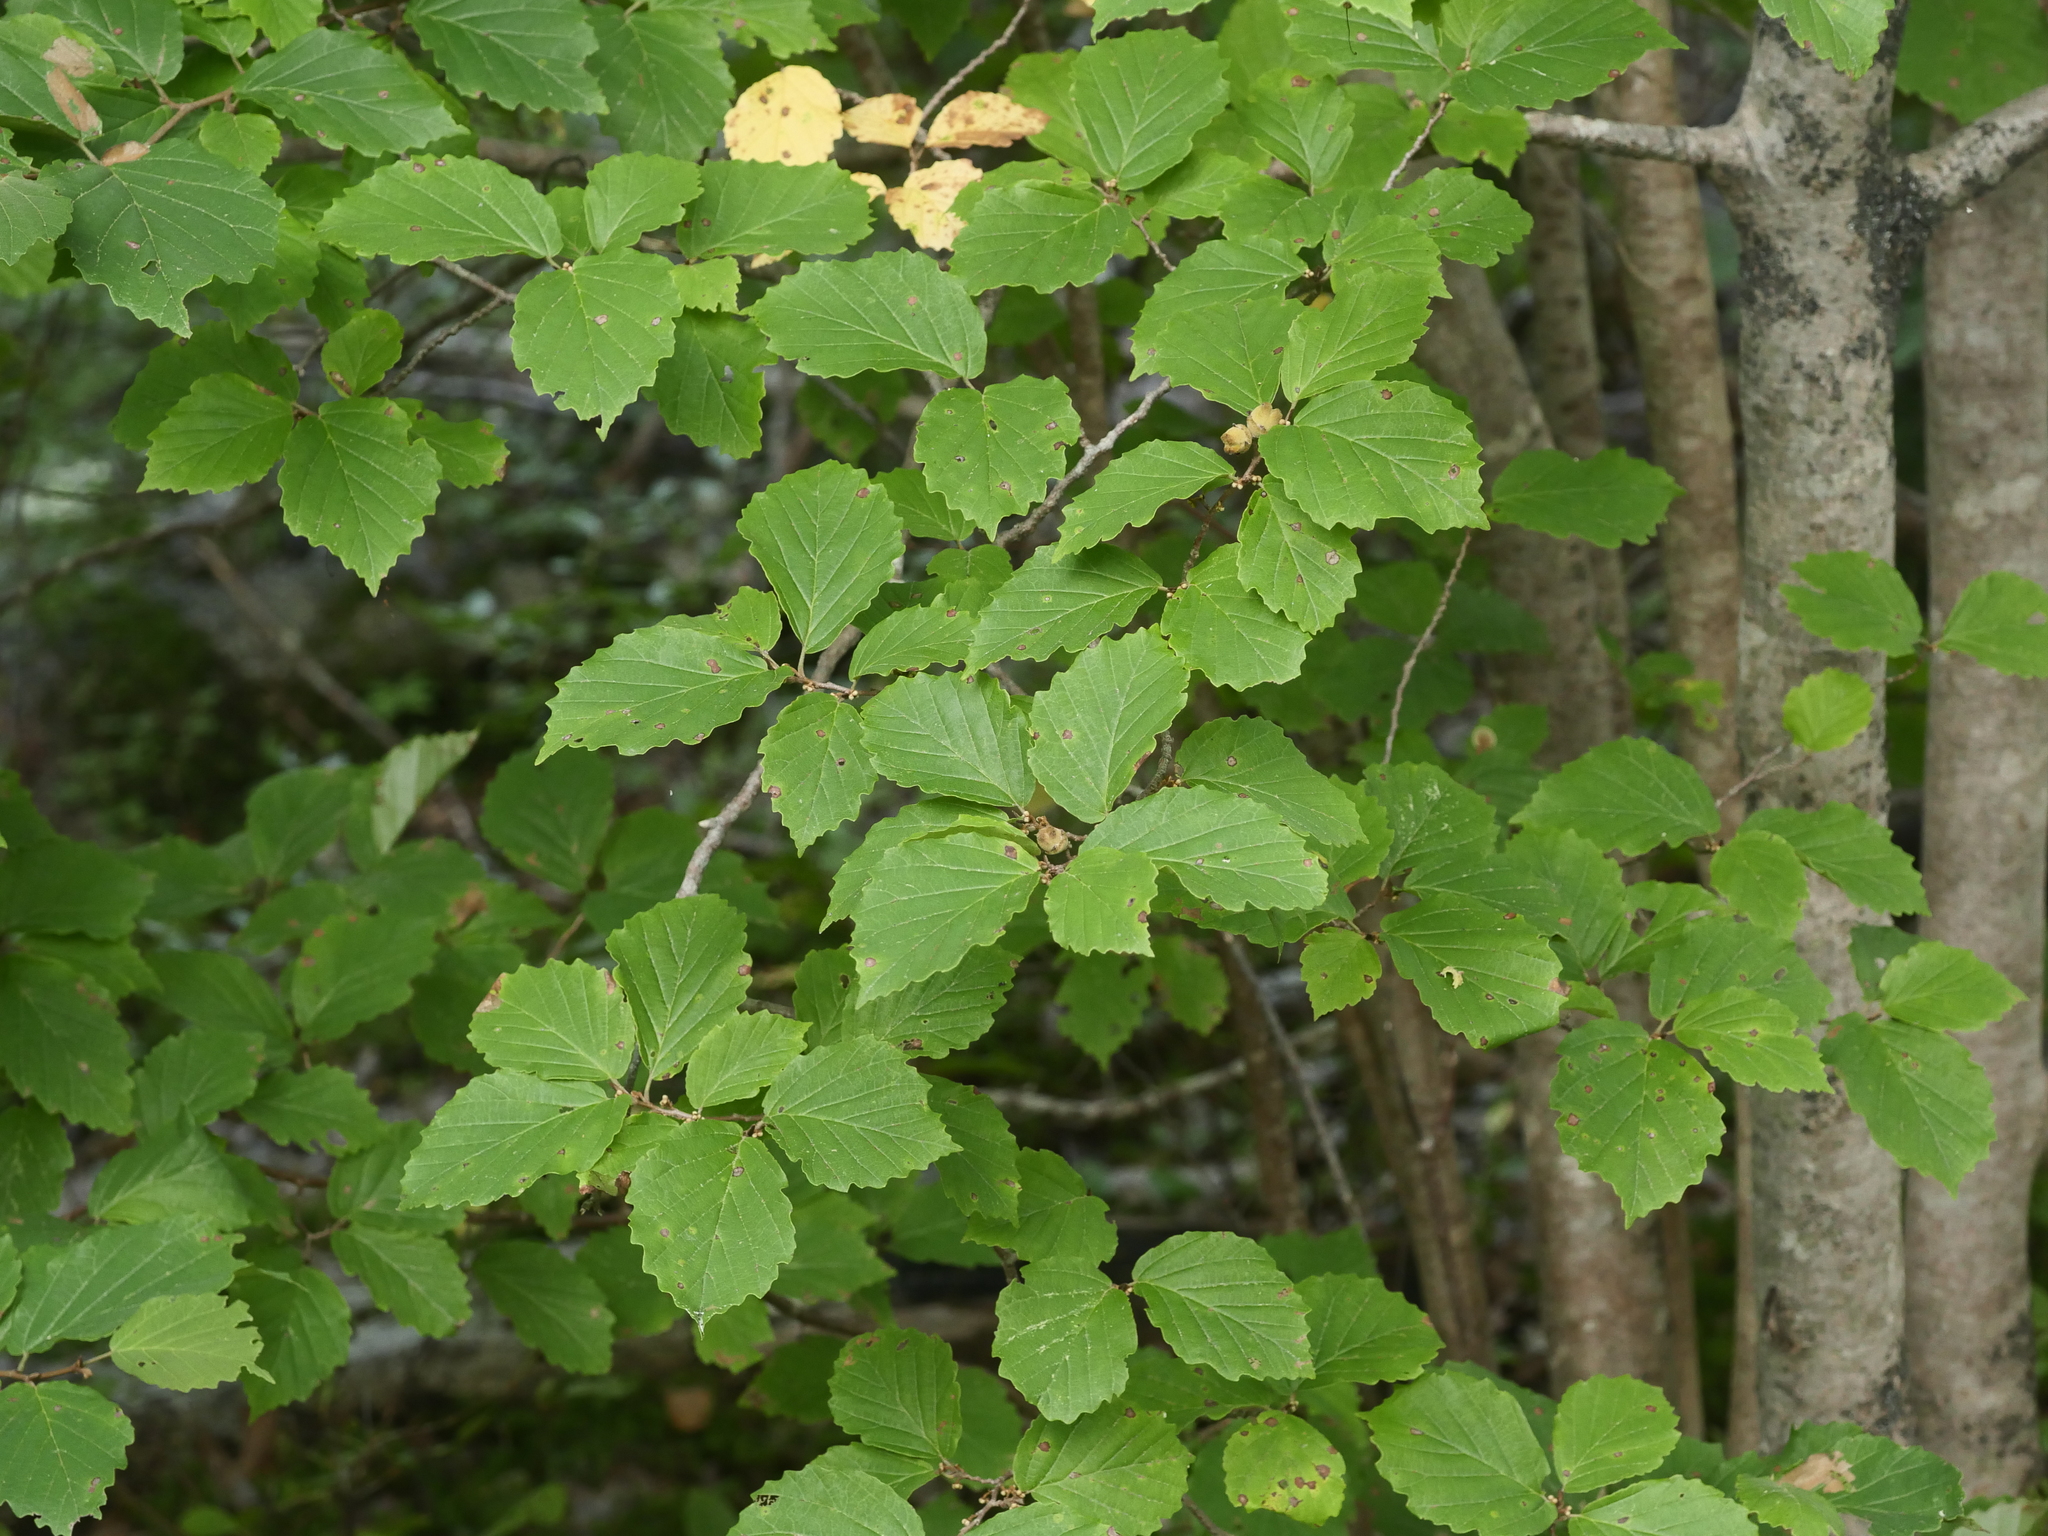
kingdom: Plantae
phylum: Tracheophyta
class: Magnoliopsida
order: Saxifragales
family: Hamamelidaceae
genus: Hamamelis
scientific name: Hamamelis virginiana
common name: Witch-hazel
